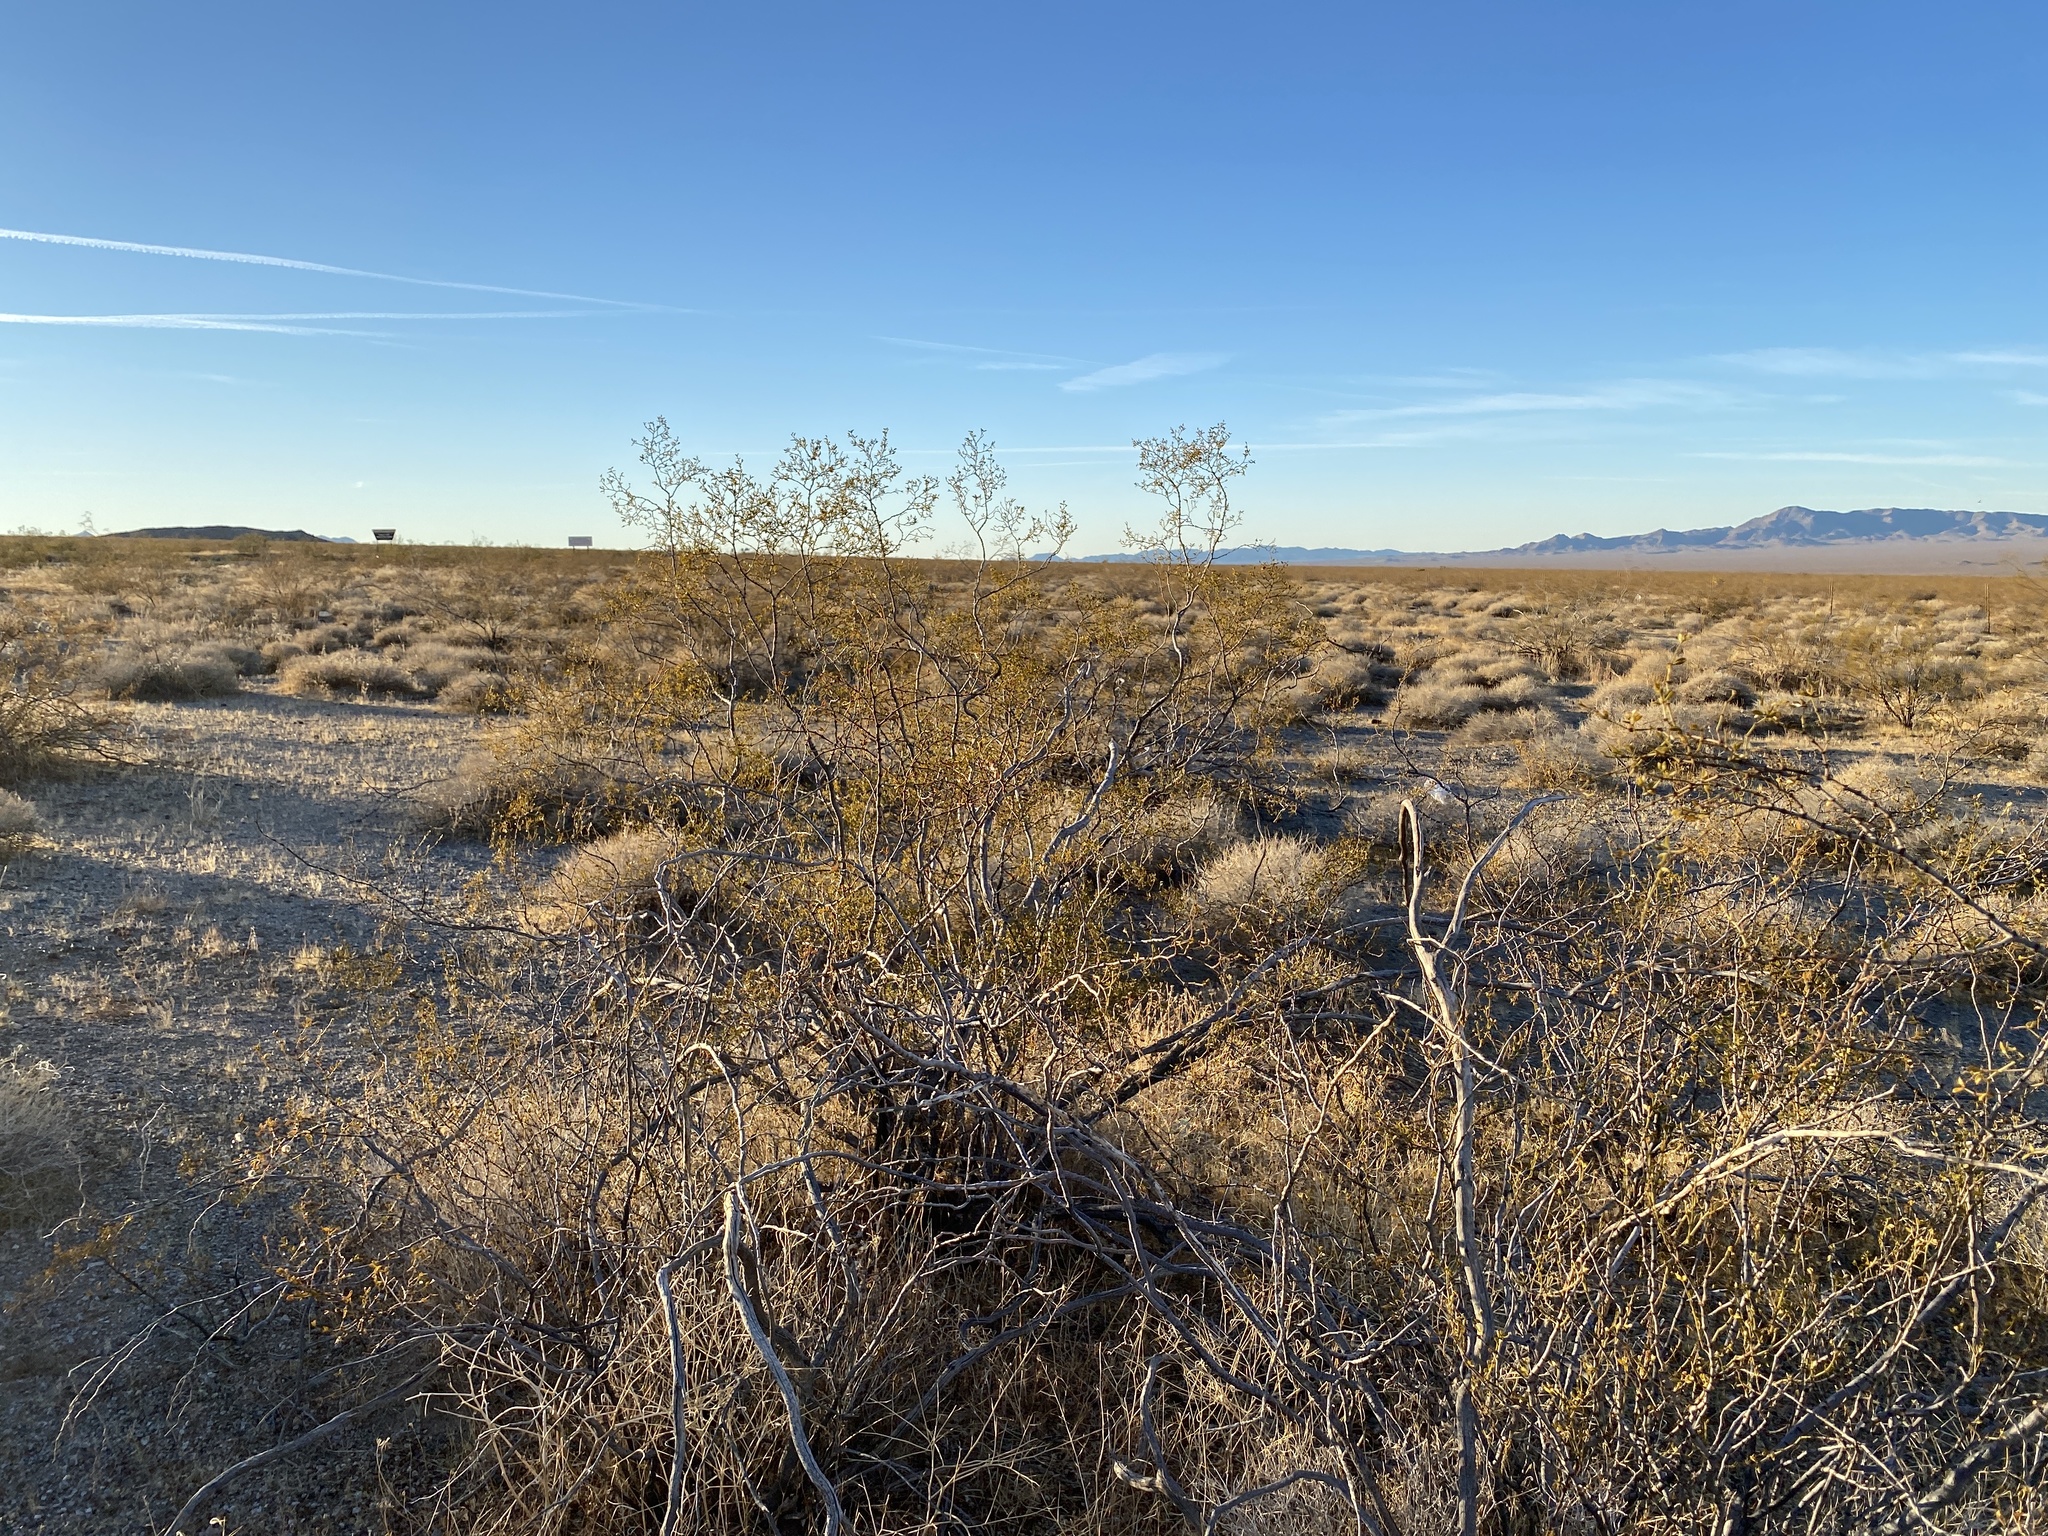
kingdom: Plantae
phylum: Tracheophyta
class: Magnoliopsida
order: Zygophyllales
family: Zygophyllaceae
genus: Larrea
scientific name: Larrea tridentata
